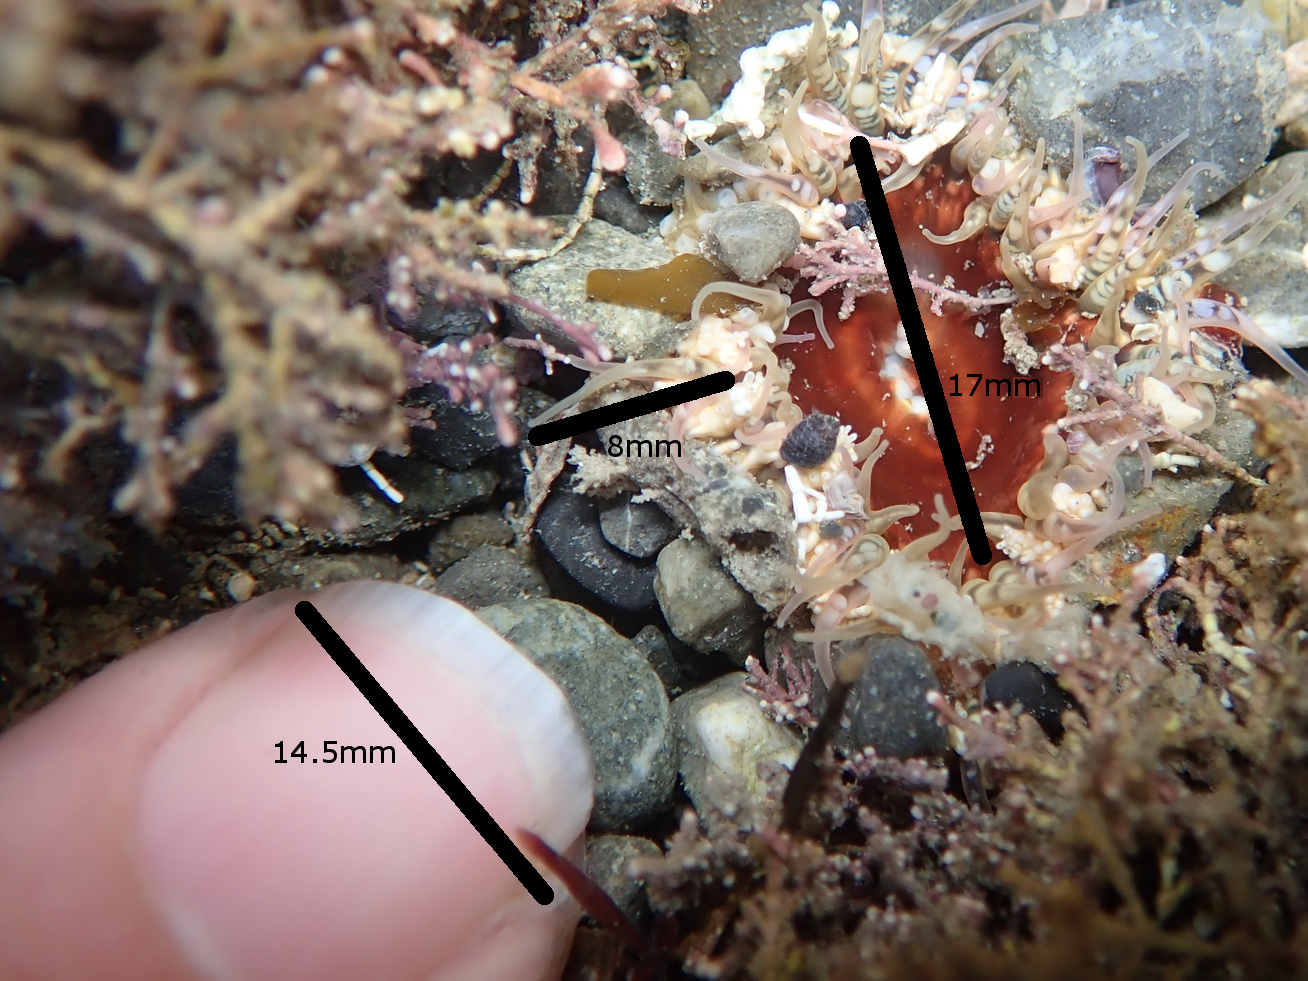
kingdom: Animalia
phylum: Cnidaria
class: Anthozoa
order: Actiniaria
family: Actiniidae
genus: Oulactis
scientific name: Oulactis muscosa
